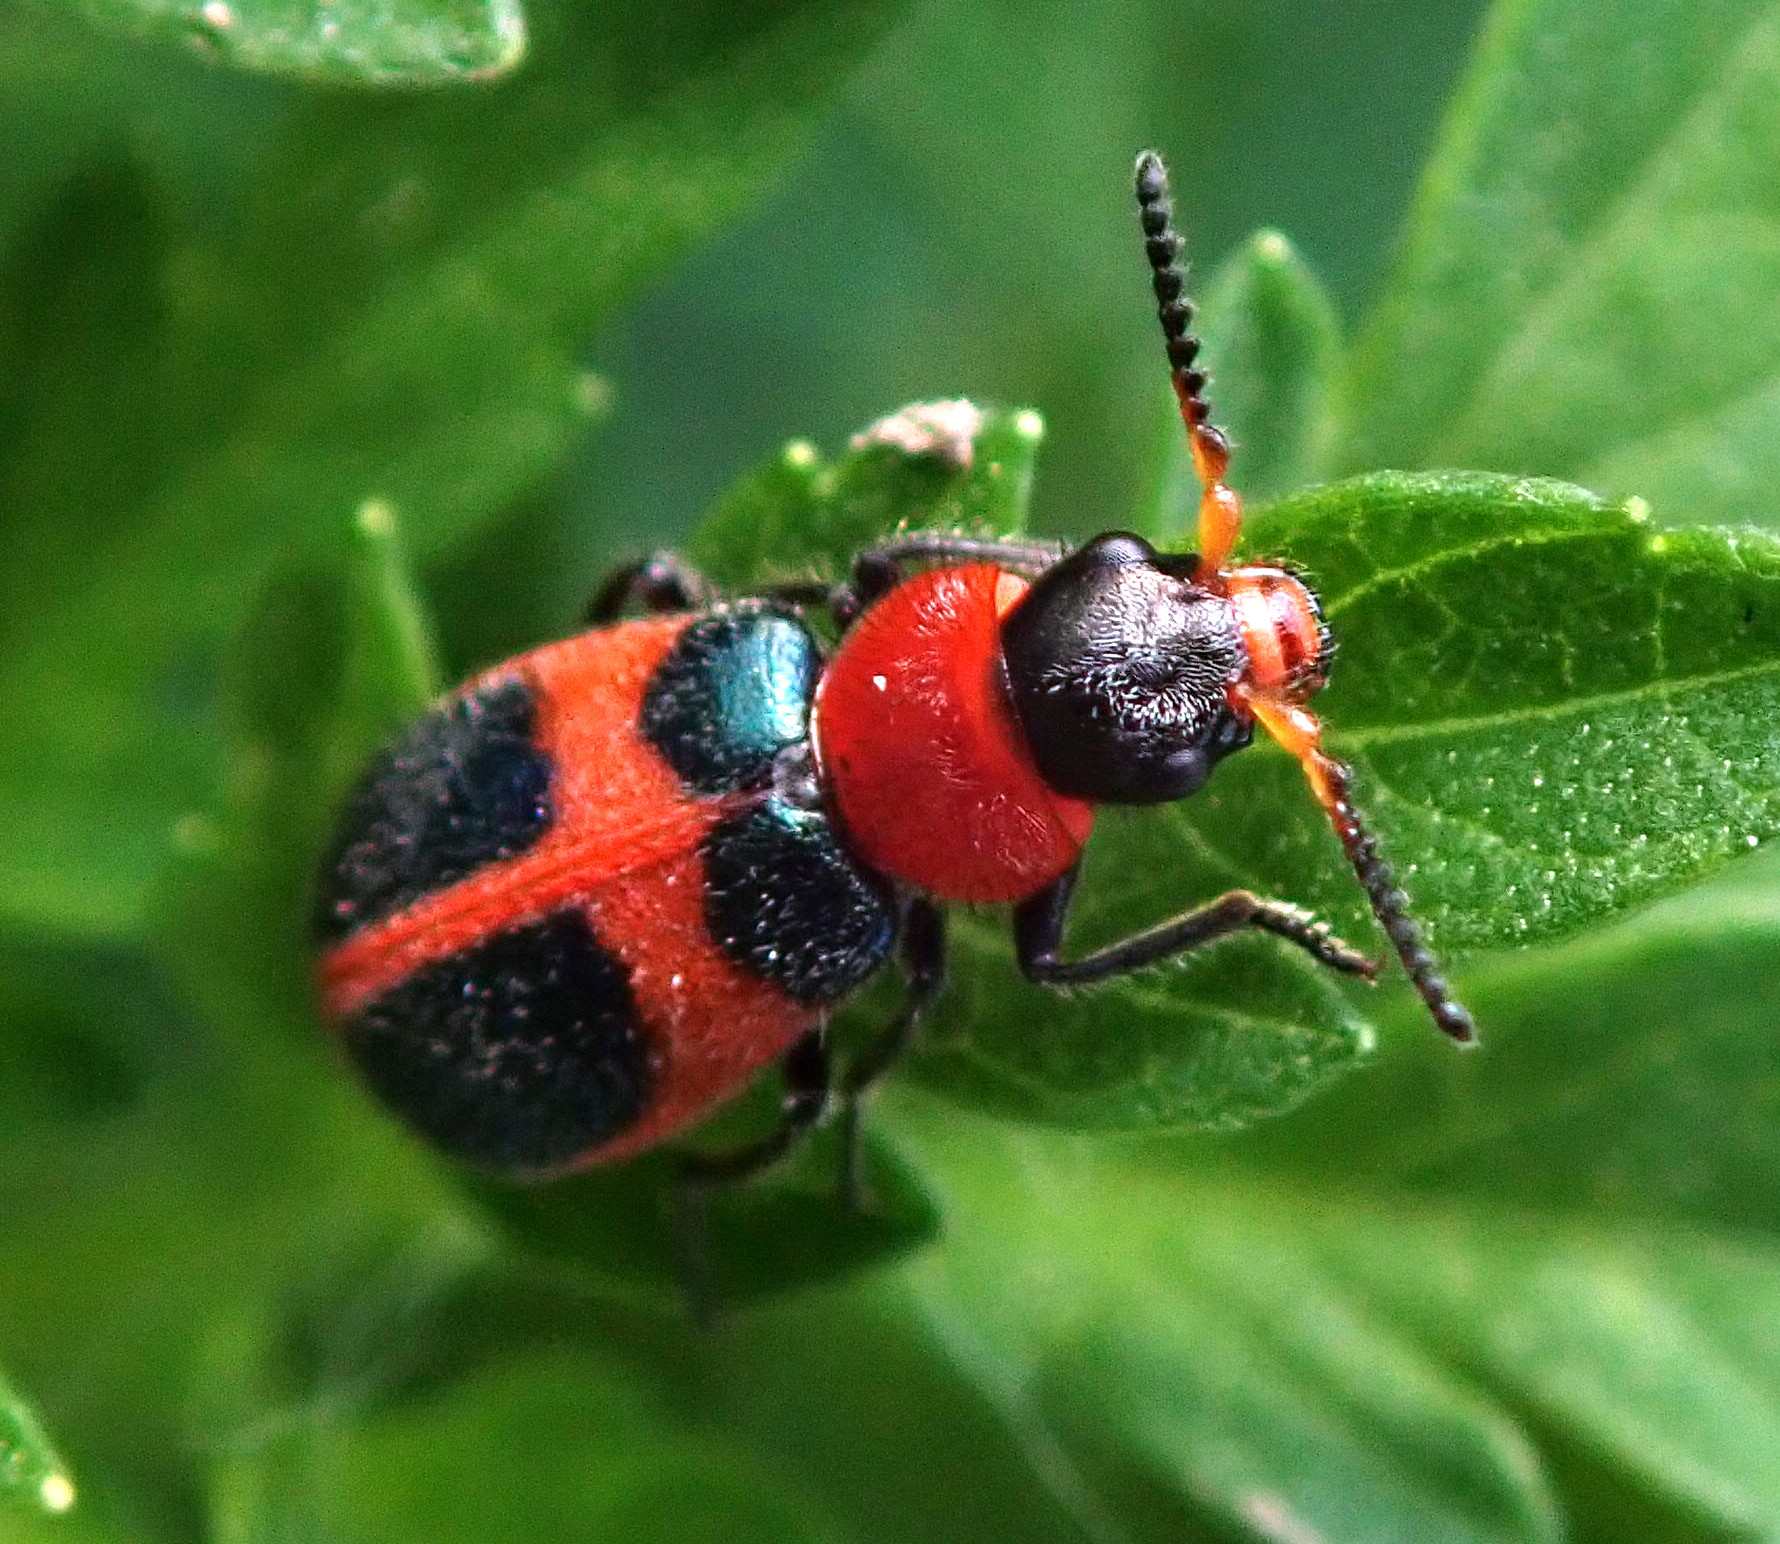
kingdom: Animalia
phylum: Arthropoda
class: Insecta
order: Coleoptera
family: Melyridae
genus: Collops
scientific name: Collops quadrimaculatus
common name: Four-spotted collops
